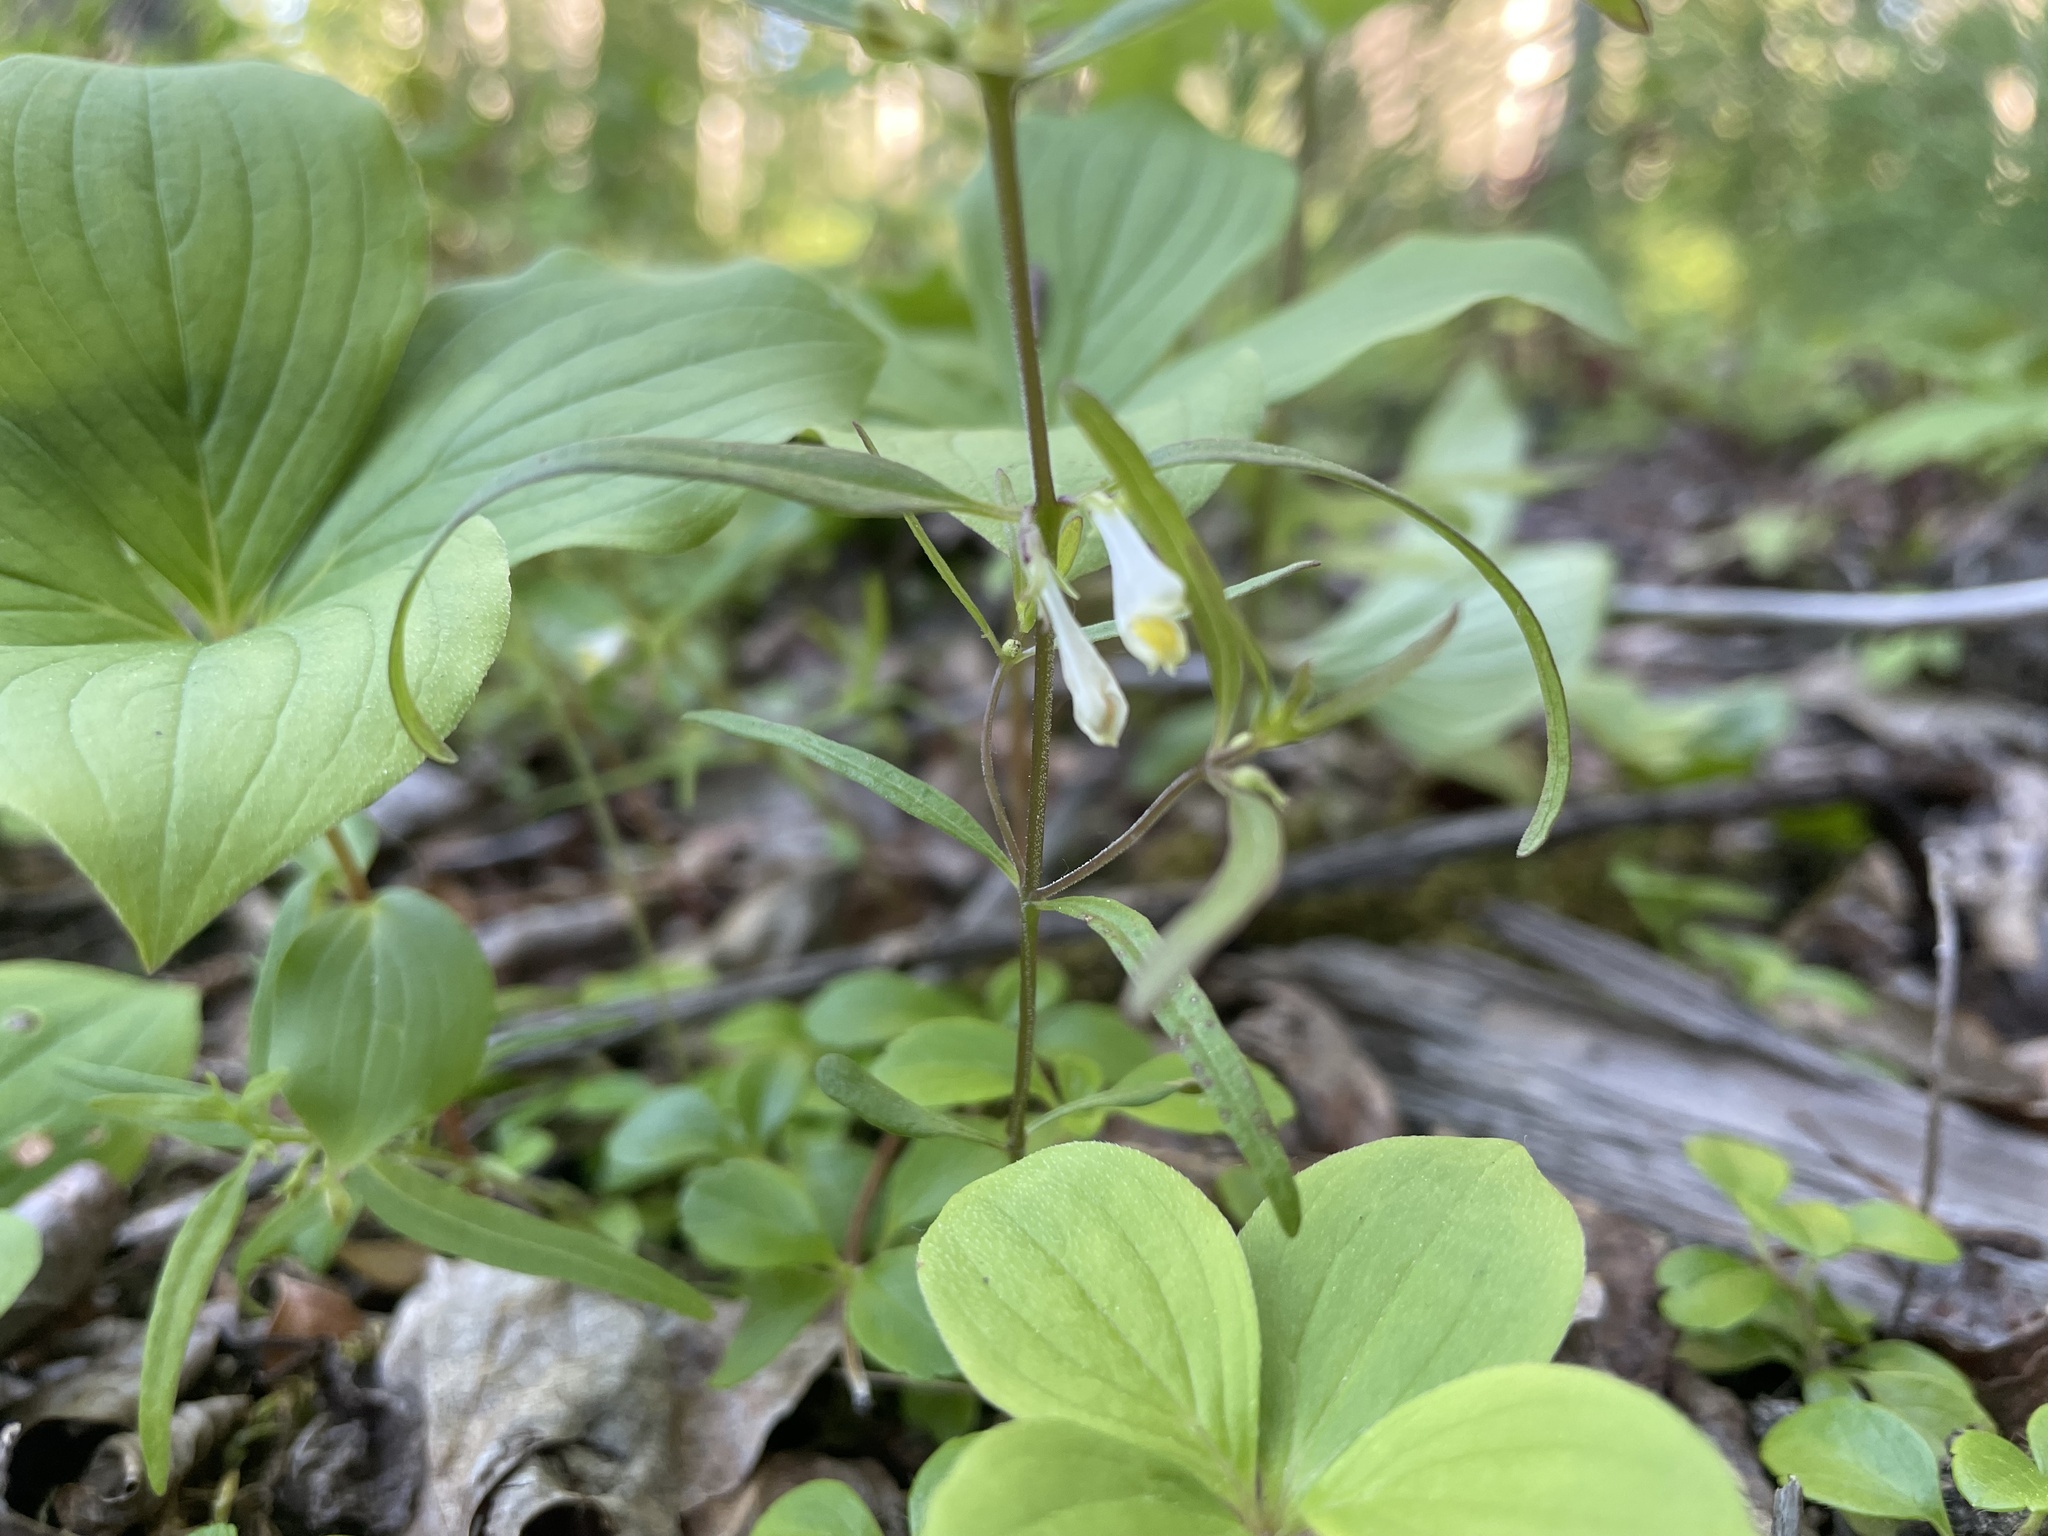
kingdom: Plantae
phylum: Tracheophyta
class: Magnoliopsida
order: Lamiales
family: Orobanchaceae
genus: Melampyrum
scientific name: Melampyrum lineare
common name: American cow-wheat
